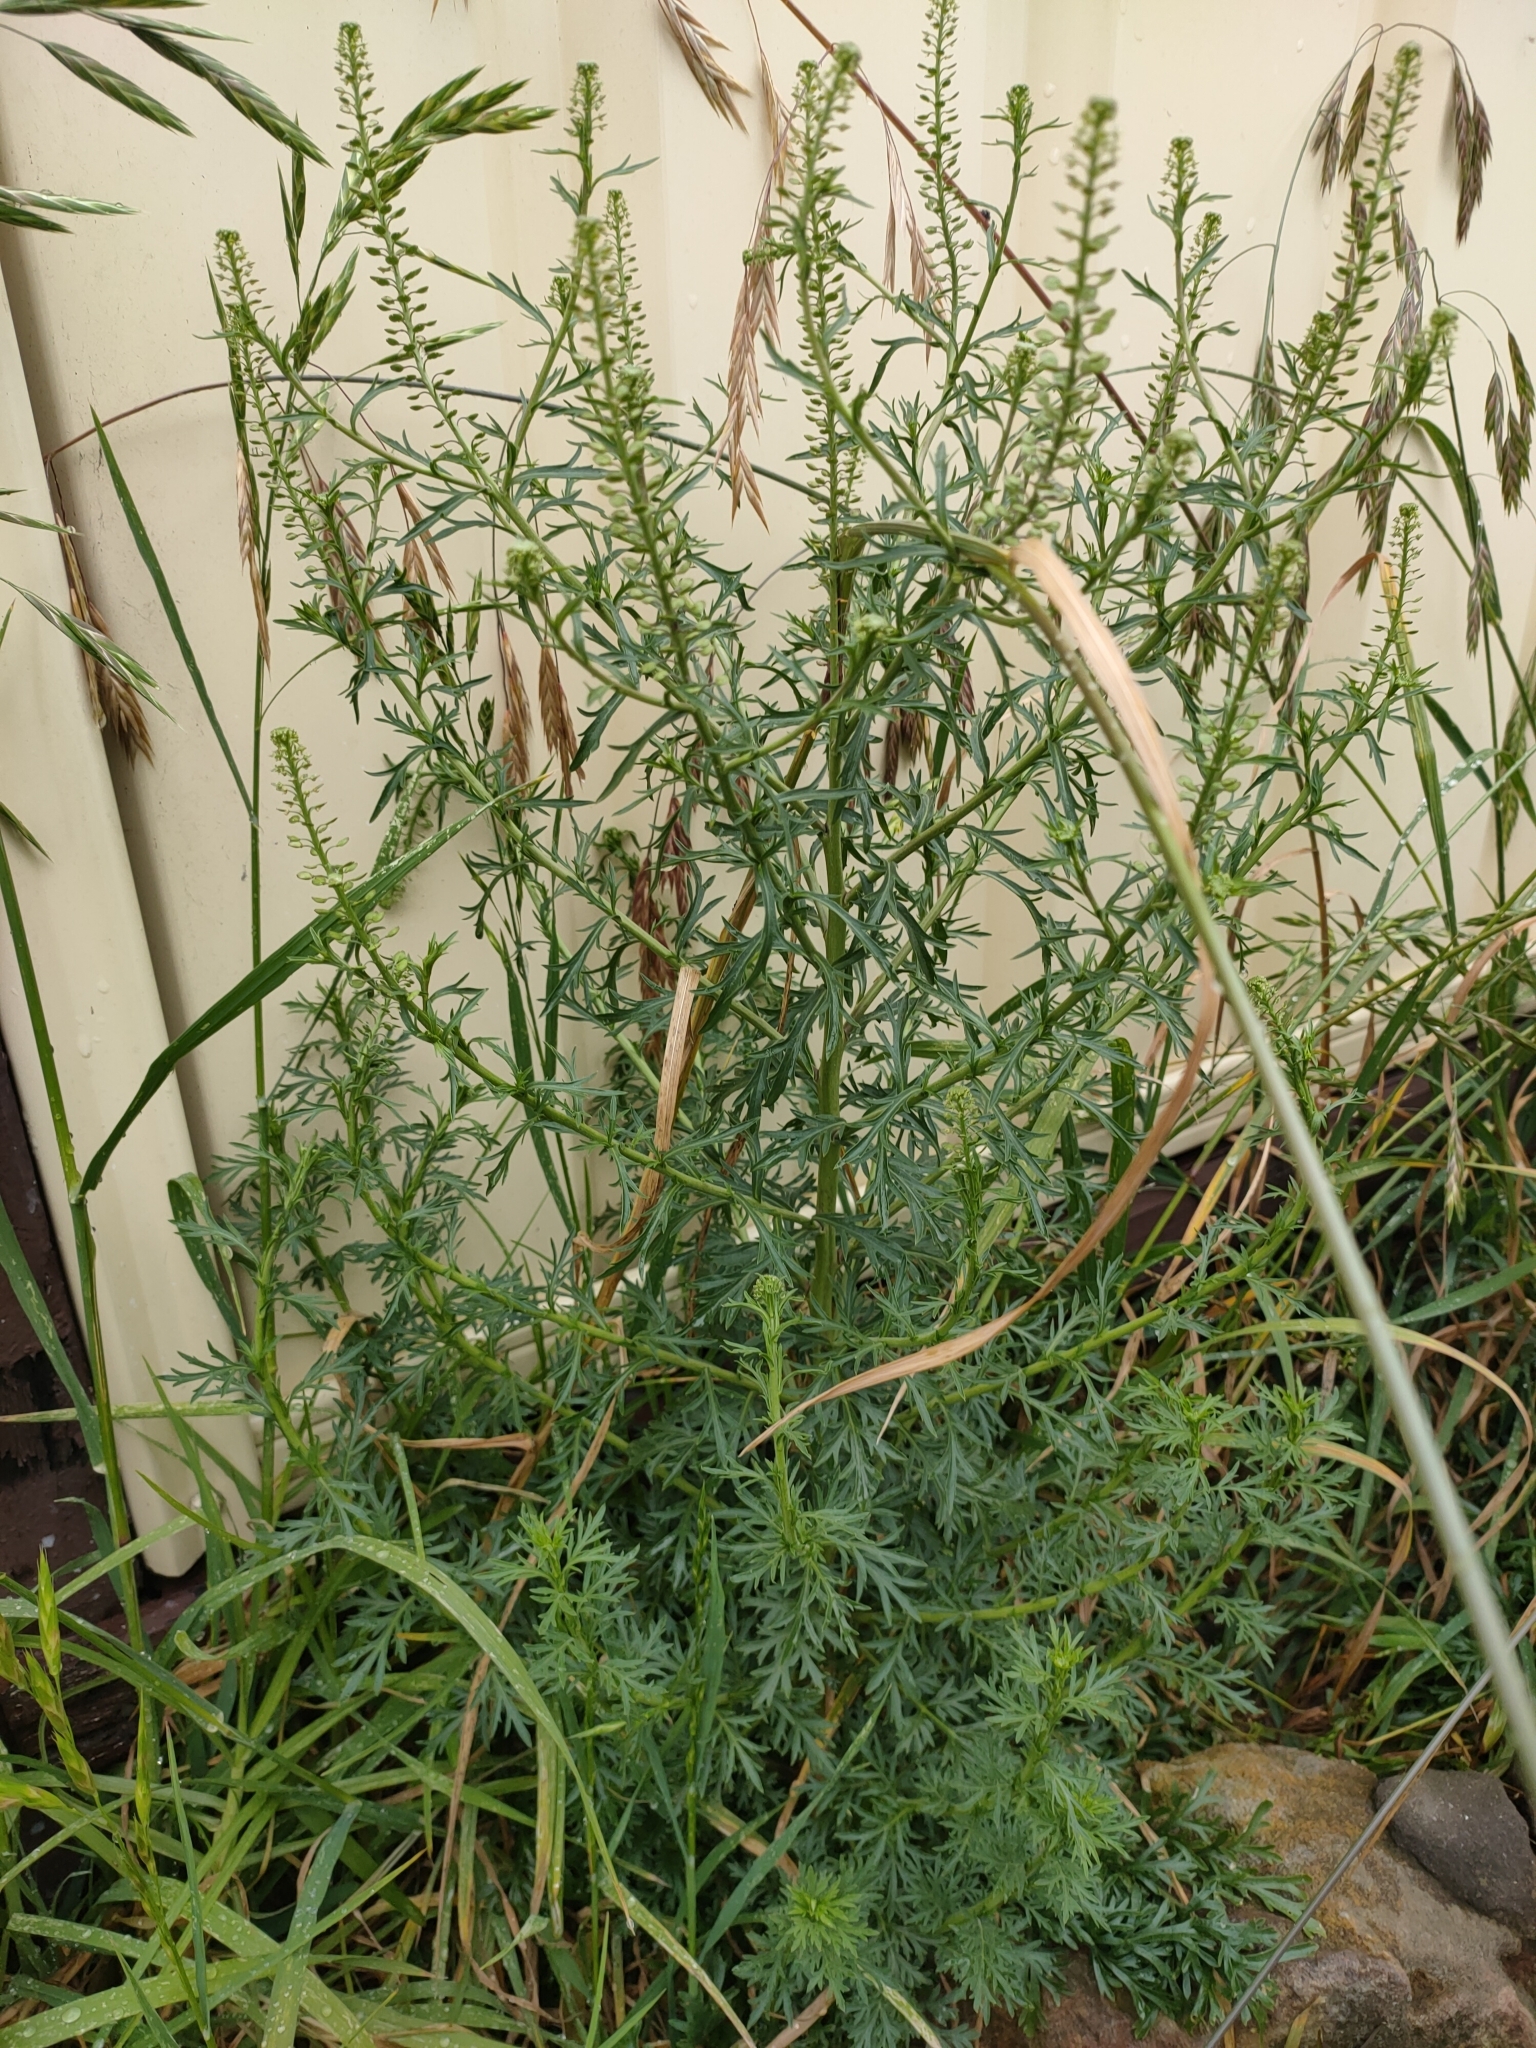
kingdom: Plantae
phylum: Tracheophyta
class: Magnoliopsida
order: Brassicales
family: Brassicaceae
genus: Lepidium
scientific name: Lepidium bonariense
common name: Argentine pepperwort
